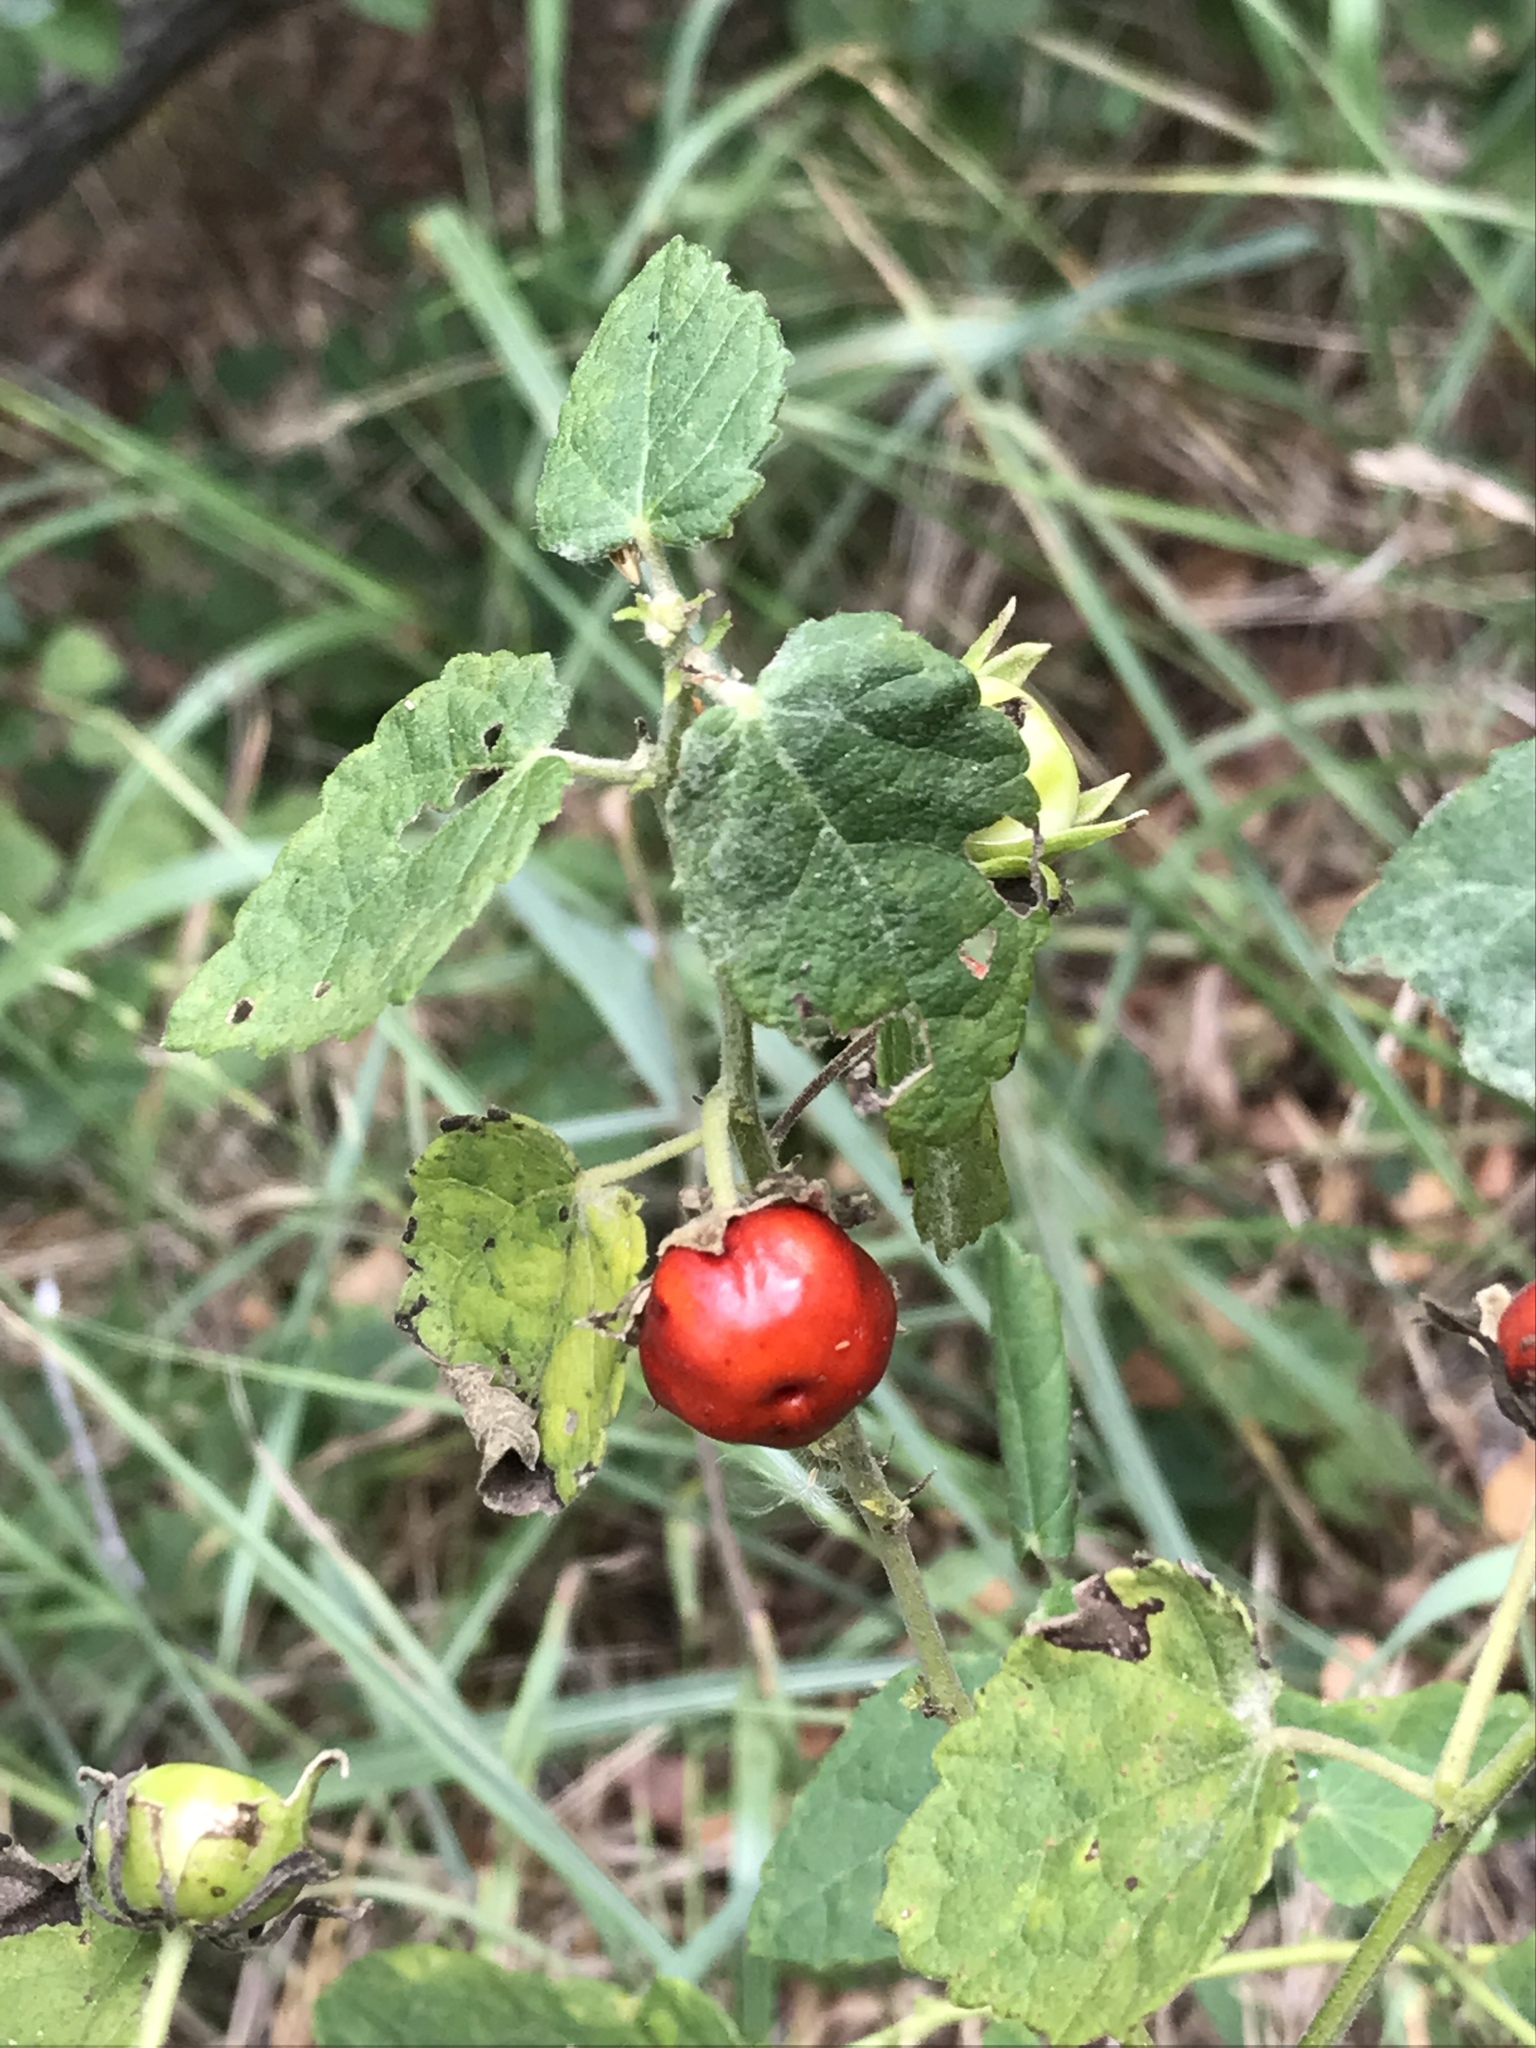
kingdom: Plantae
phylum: Tracheophyta
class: Magnoliopsida
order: Malvales
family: Malvaceae
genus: Malvaviscus
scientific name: Malvaviscus arboreus
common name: Wax mallow
